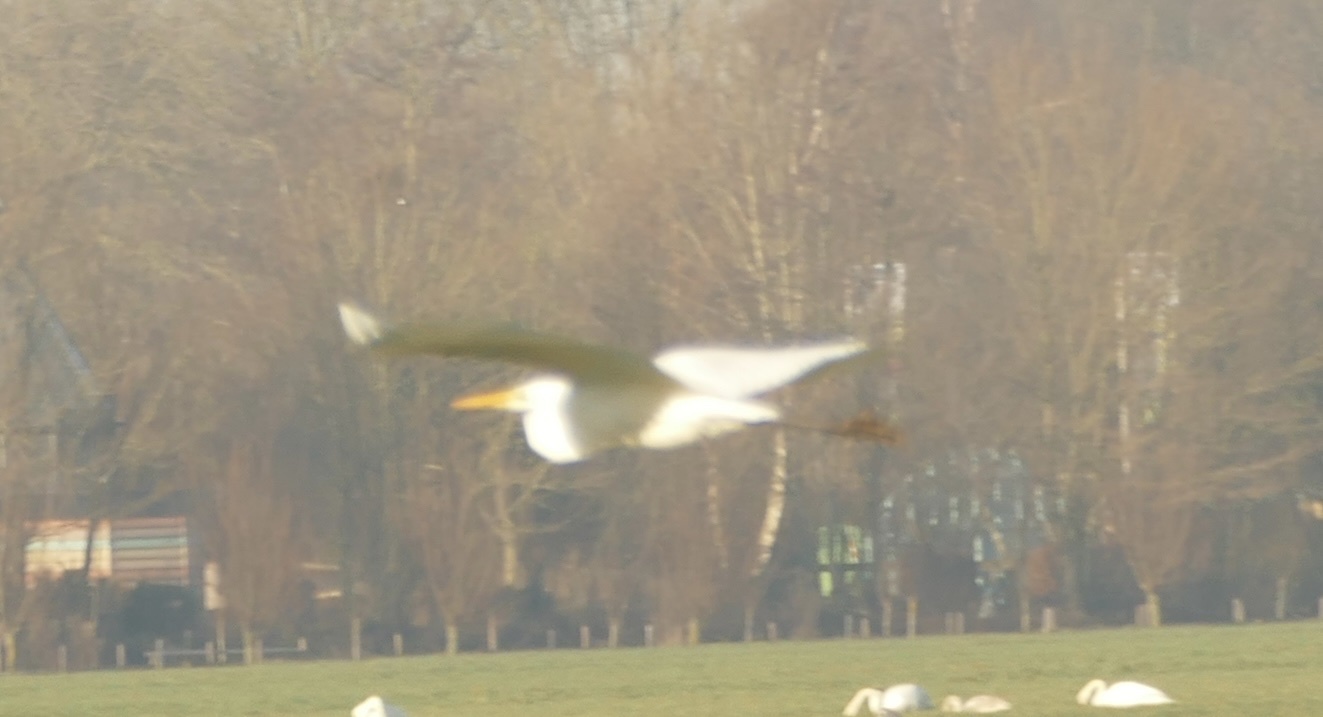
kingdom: Animalia
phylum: Chordata
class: Aves
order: Pelecaniformes
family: Ardeidae
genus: Ardea
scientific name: Ardea alba
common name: Great egret
